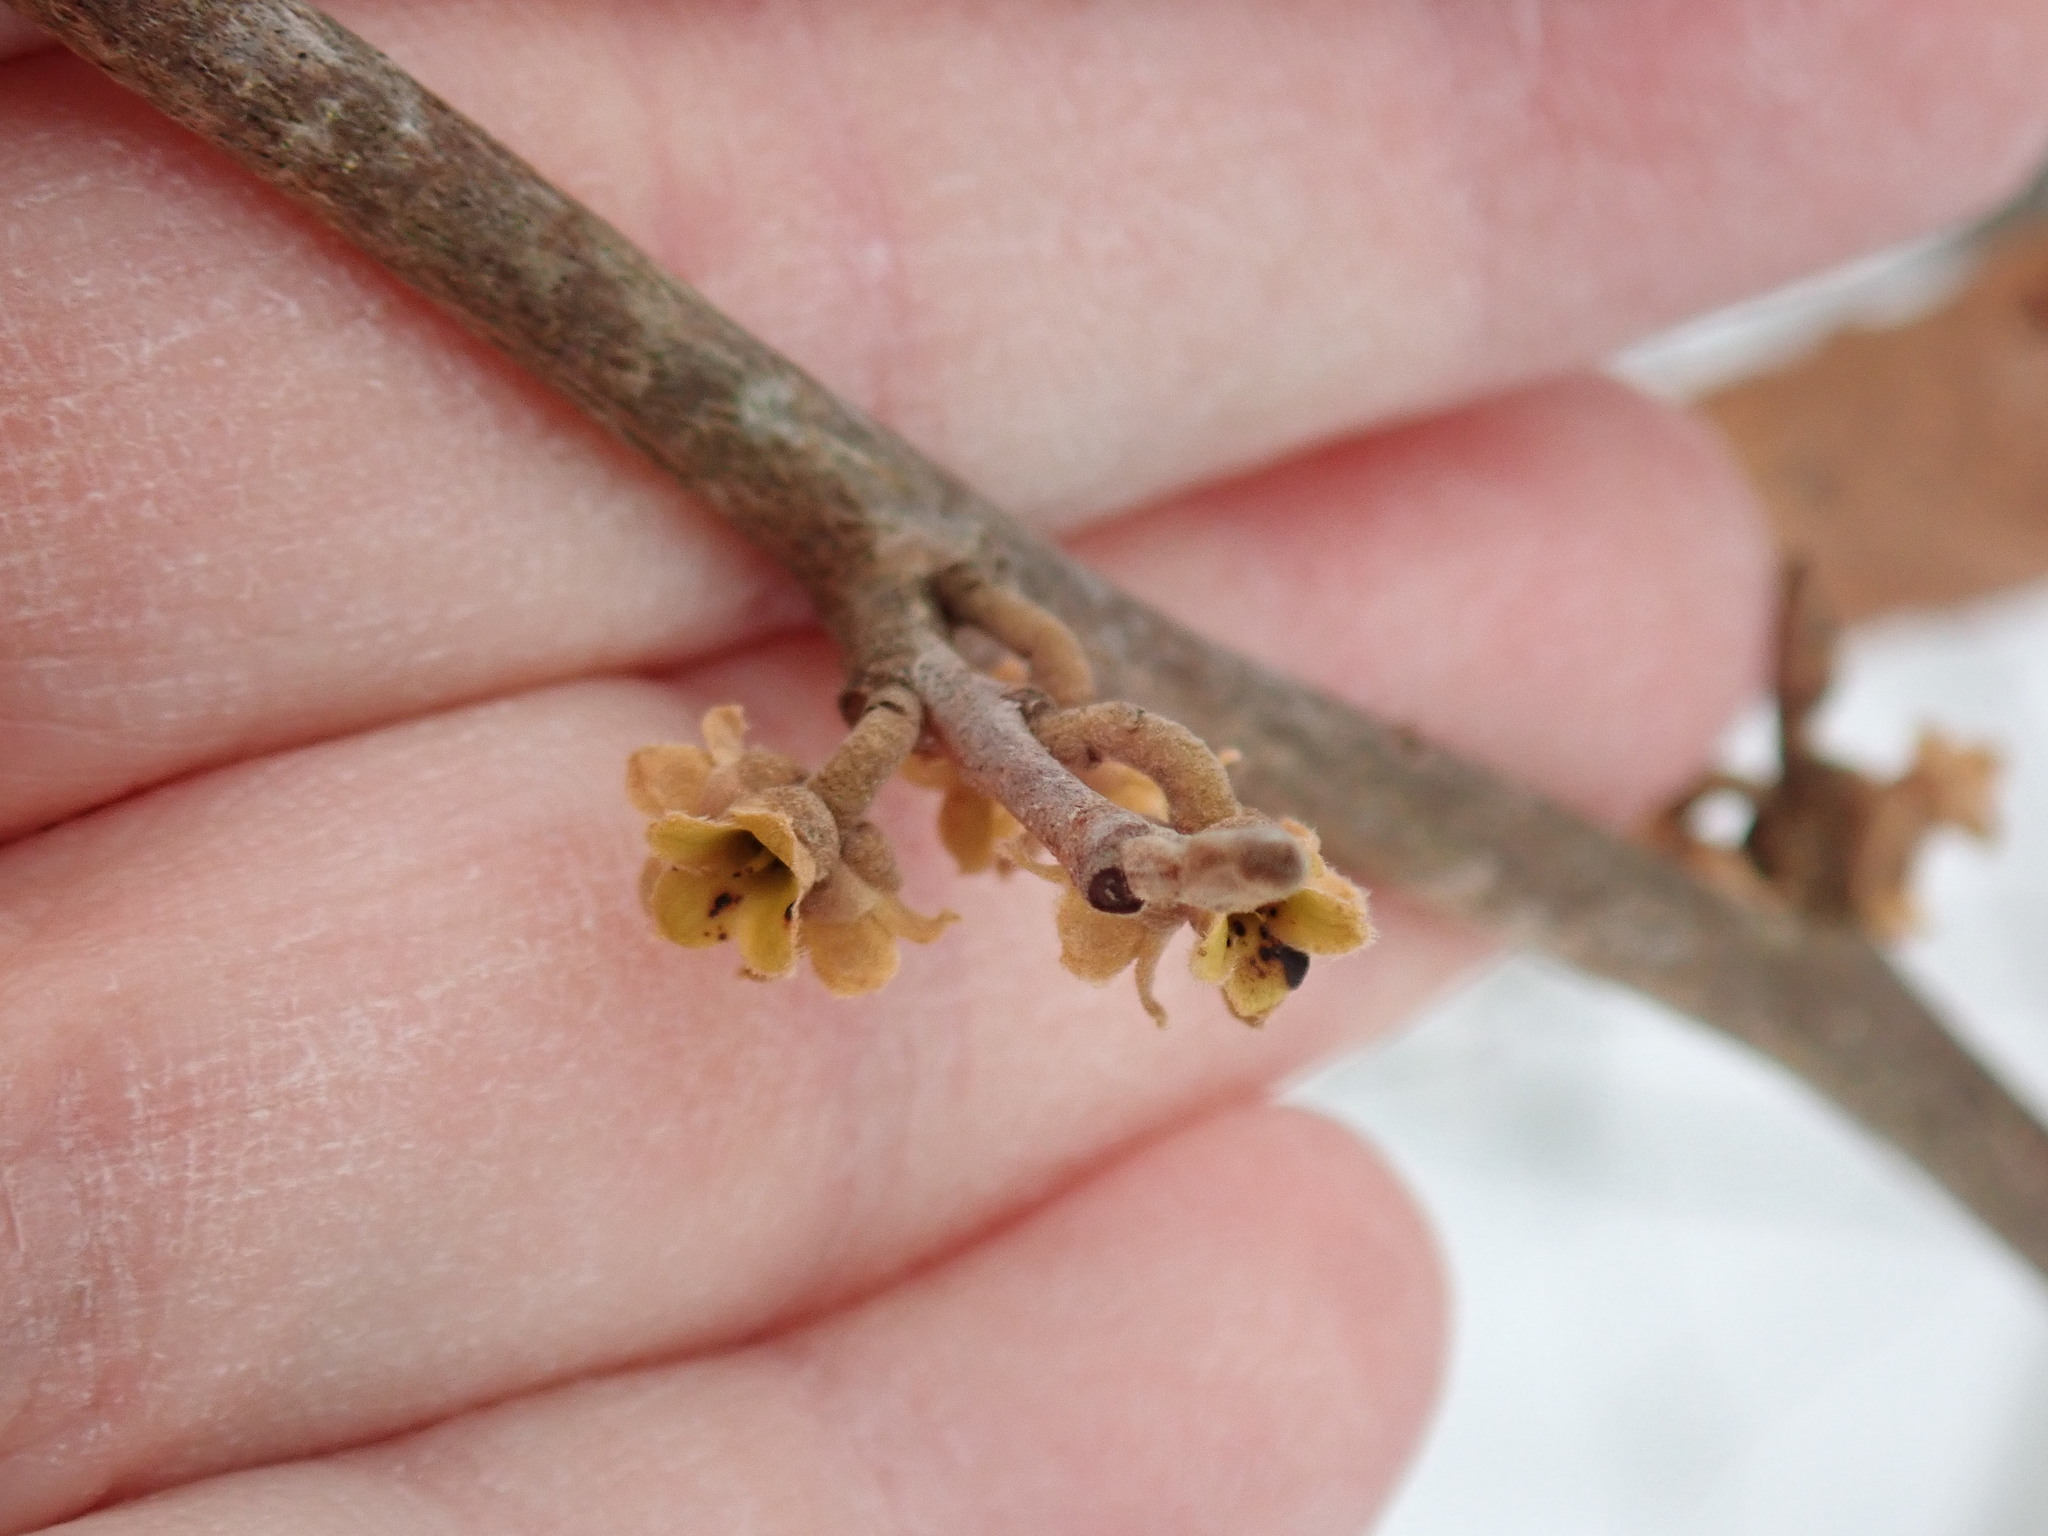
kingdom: Plantae
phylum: Tracheophyta
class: Magnoliopsida
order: Saxifragales
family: Hamamelidaceae
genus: Hamamelis
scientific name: Hamamelis virginiana
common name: Witch-hazel
